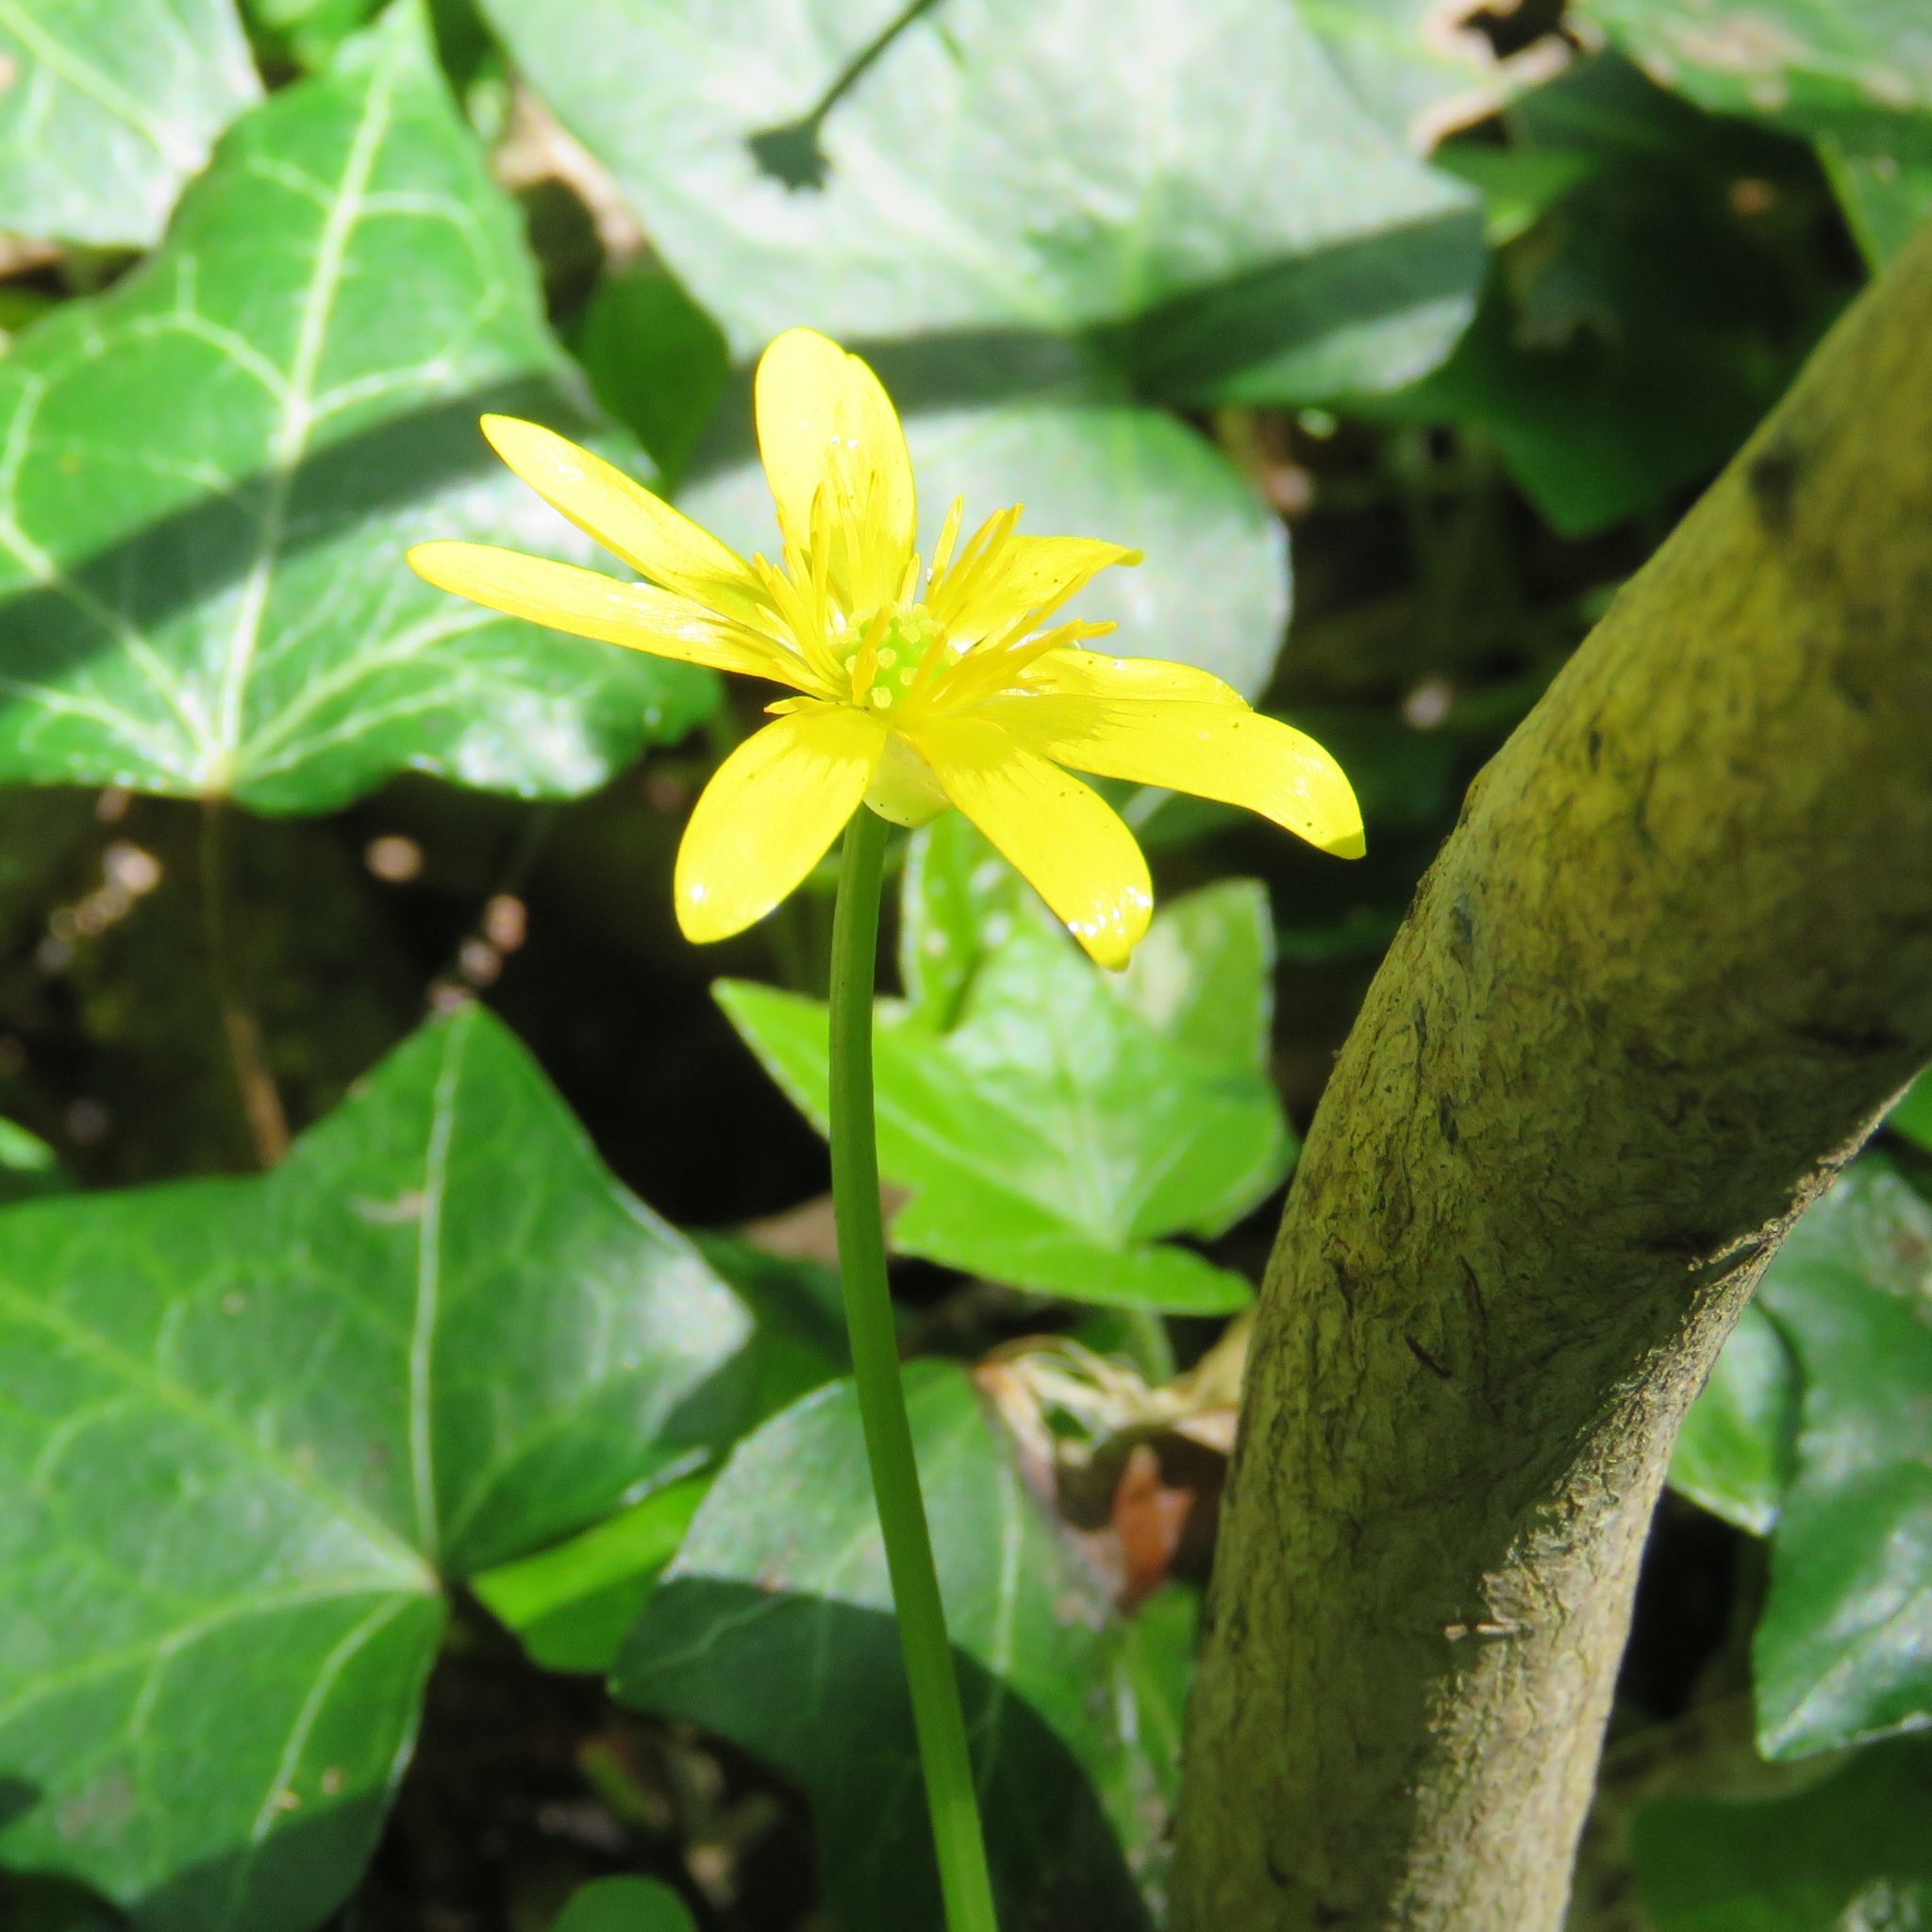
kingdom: Plantae
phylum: Tracheophyta
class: Magnoliopsida
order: Ranunculales
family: Ranunculaceae
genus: Ficaria
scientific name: Ficaria verna
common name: Lesser celandine
